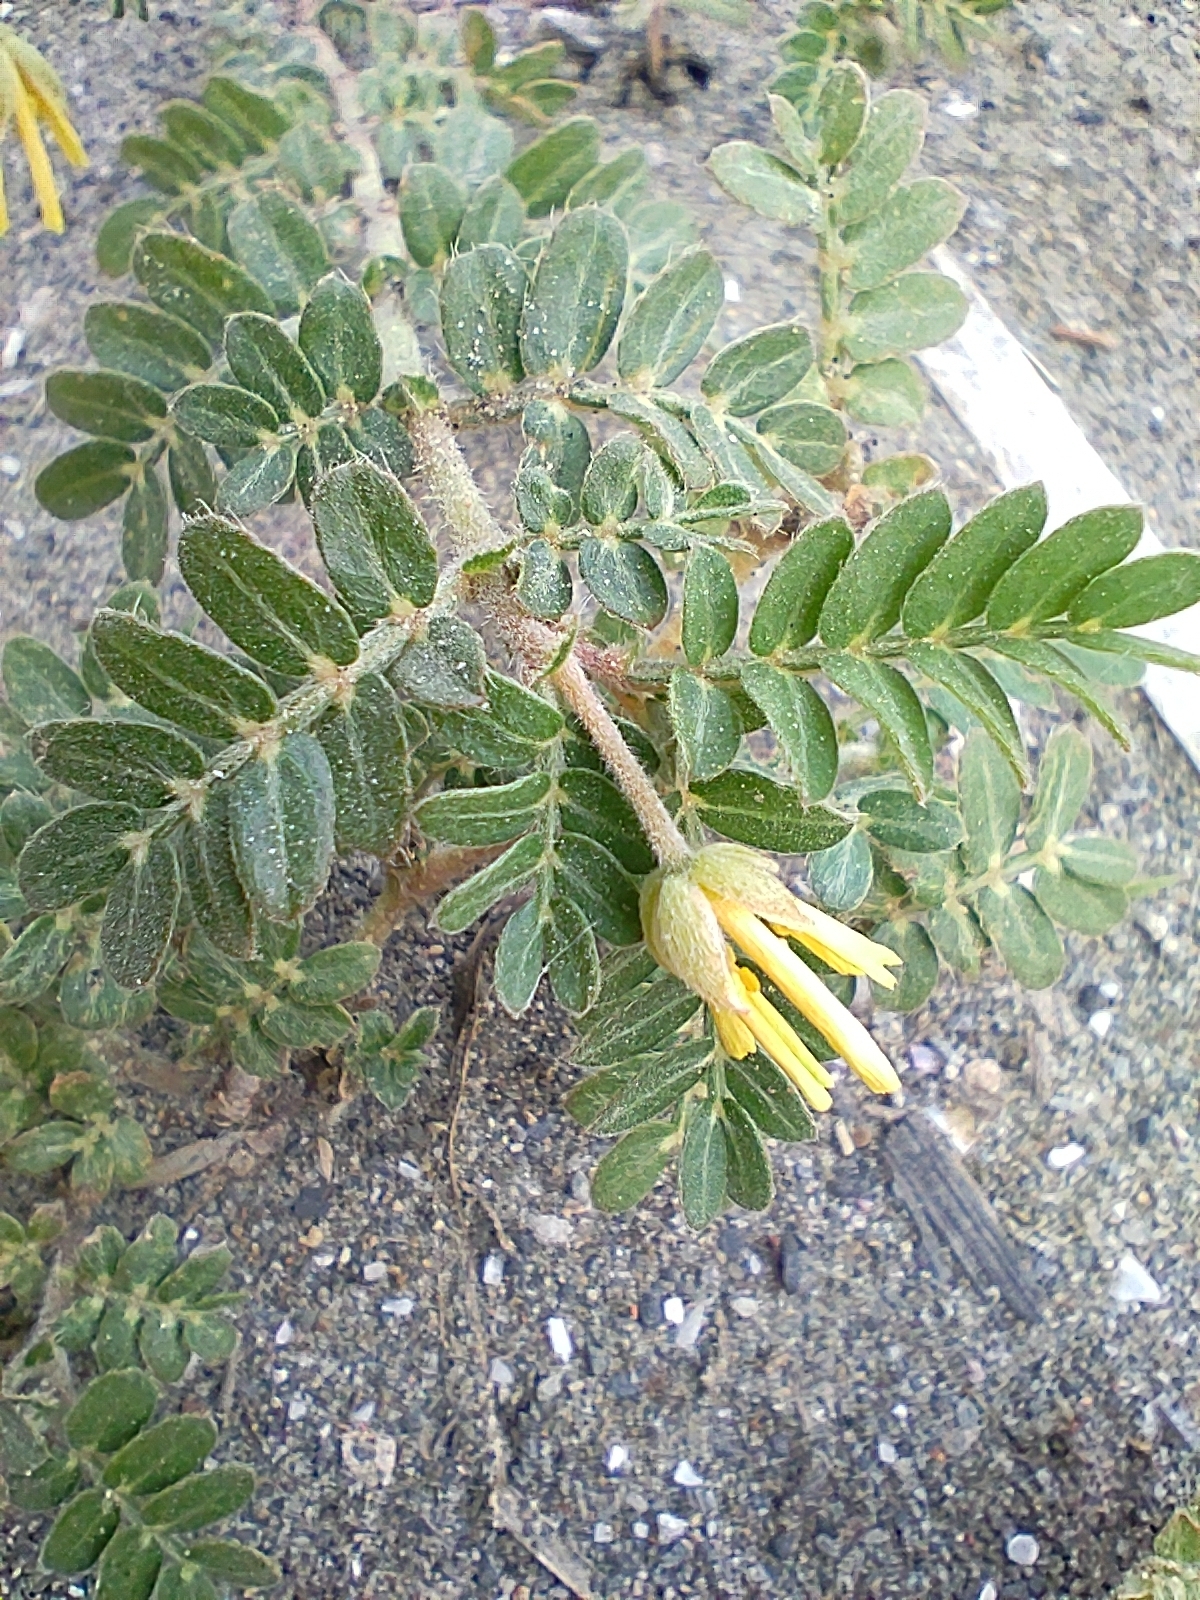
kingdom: Plantae
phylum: Tracheophyta
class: Magnoliopsida
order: Zygophyllales
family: Zygophyllaceae
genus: Tribulus
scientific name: Tribulus cistoides
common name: Jamaican feverplant
